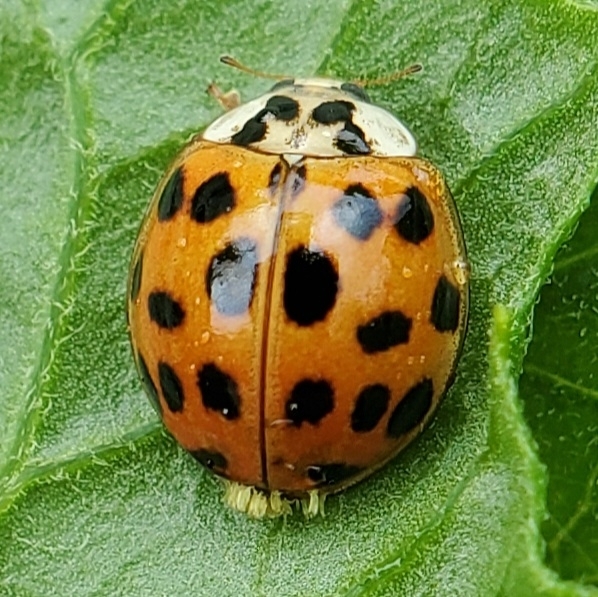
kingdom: Animalia
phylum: Arthropoda
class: Insecta
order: Coleoptera
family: Coccinellidae
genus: Harmonia
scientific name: Harmonia axyridis
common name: Harlequin ladybird
